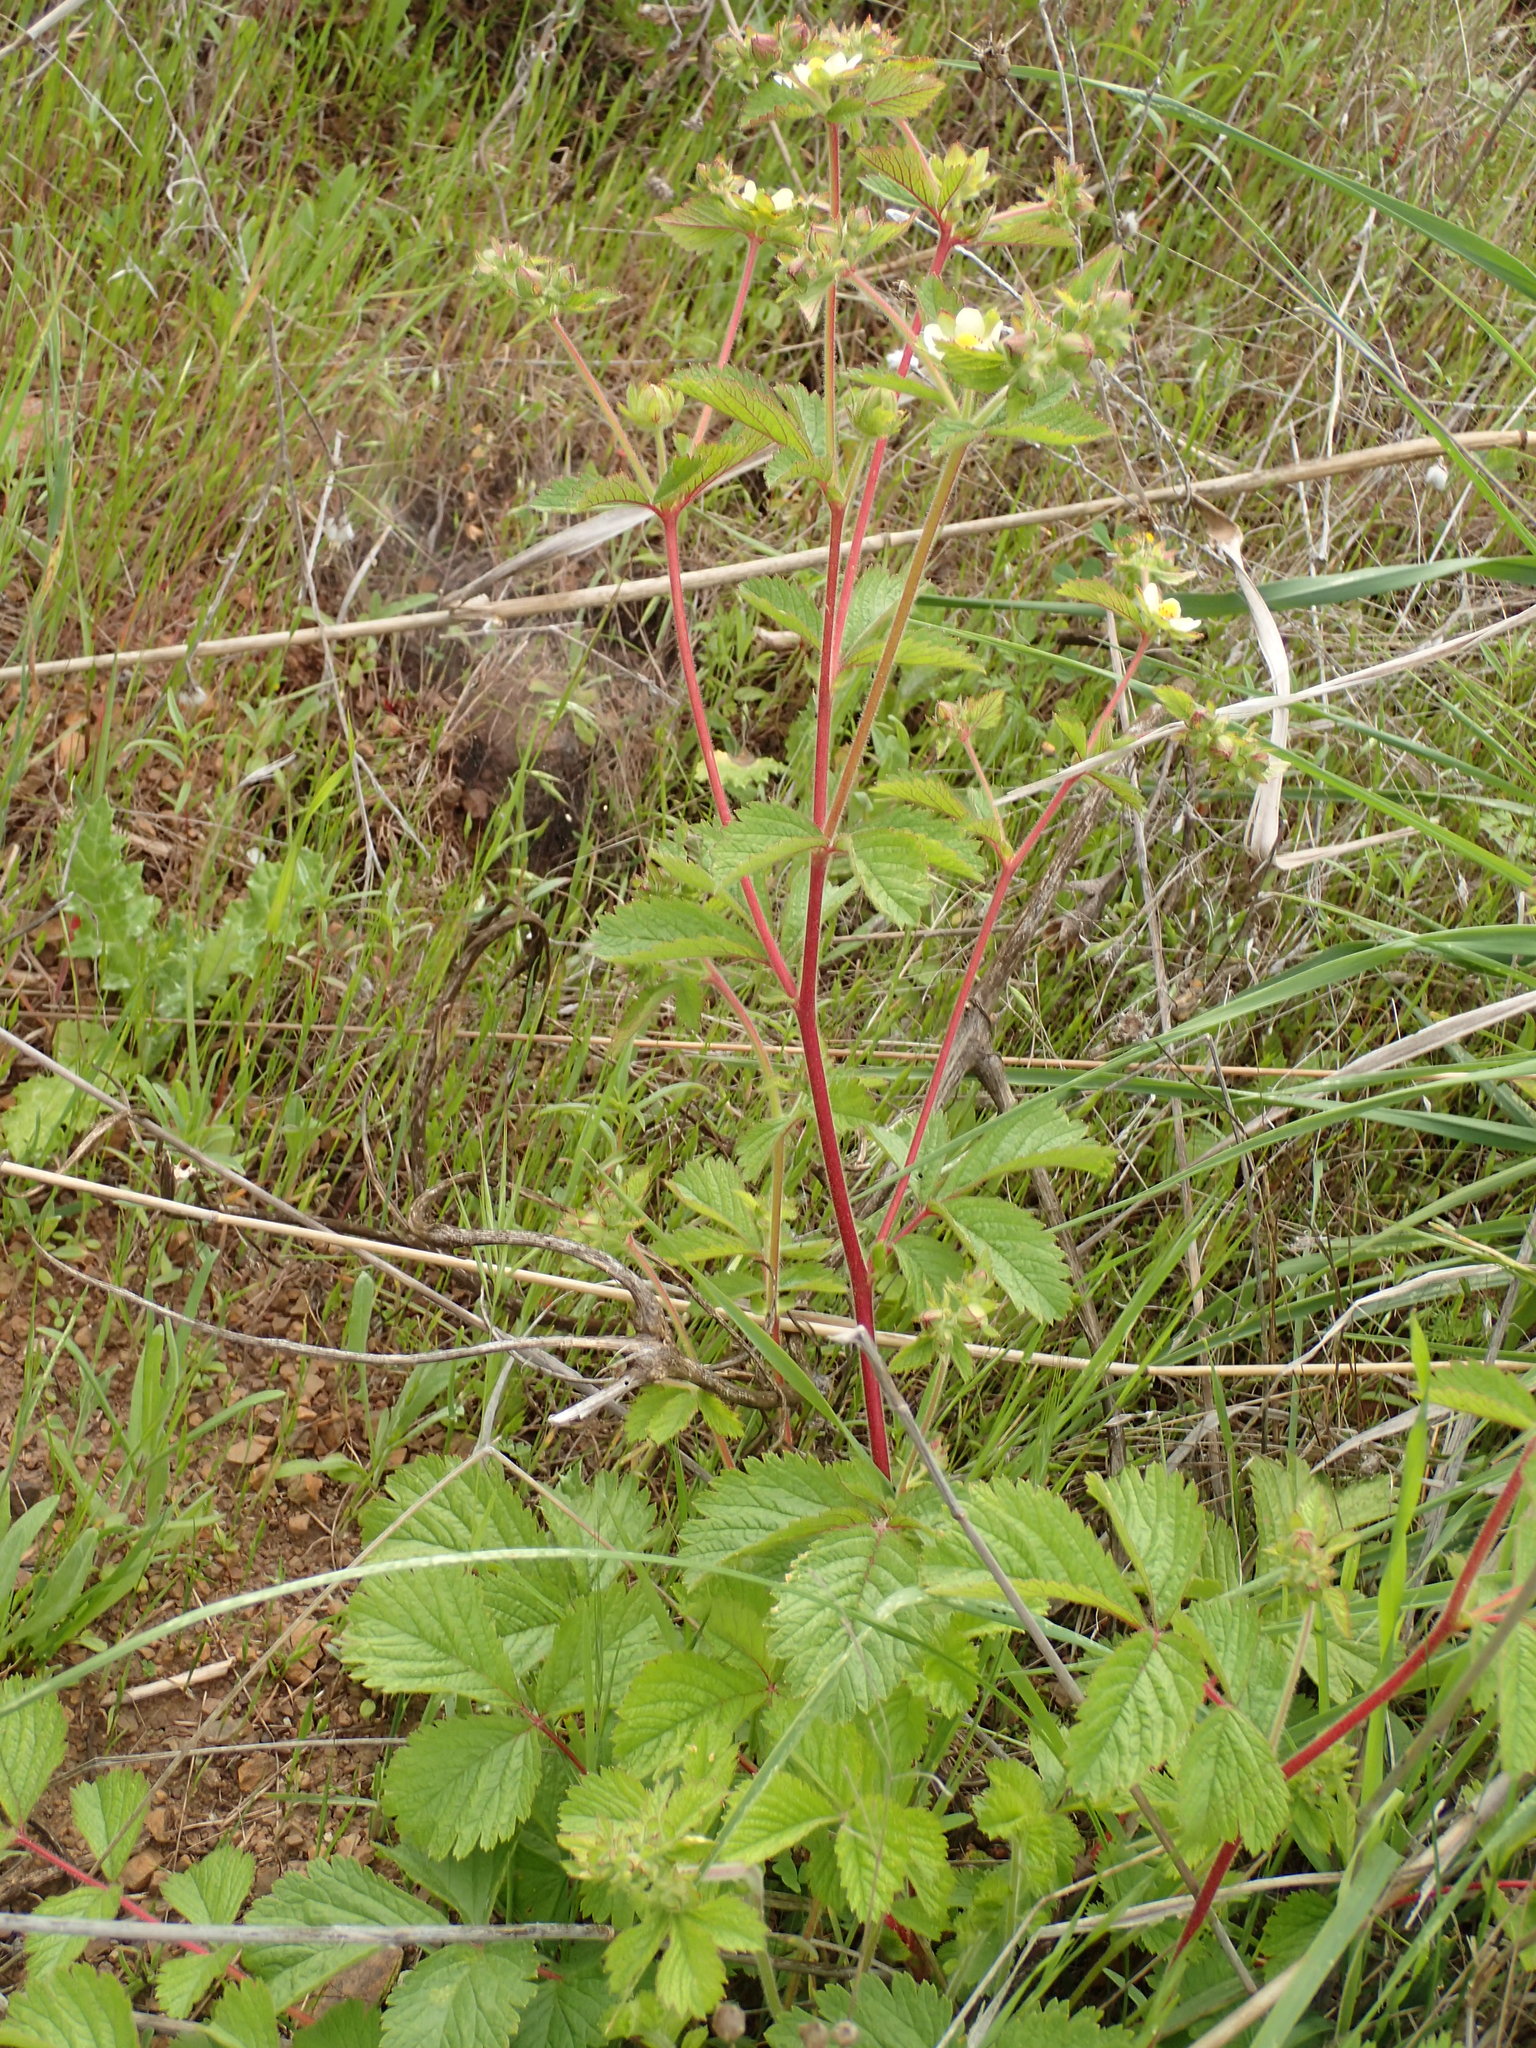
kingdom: Plantae
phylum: Tracheophyta
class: Magnoliopsida
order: Rosales
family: Rosaceae
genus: Drymocallis
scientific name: Drymocallis glandulosa
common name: Sticky cinquefoil
